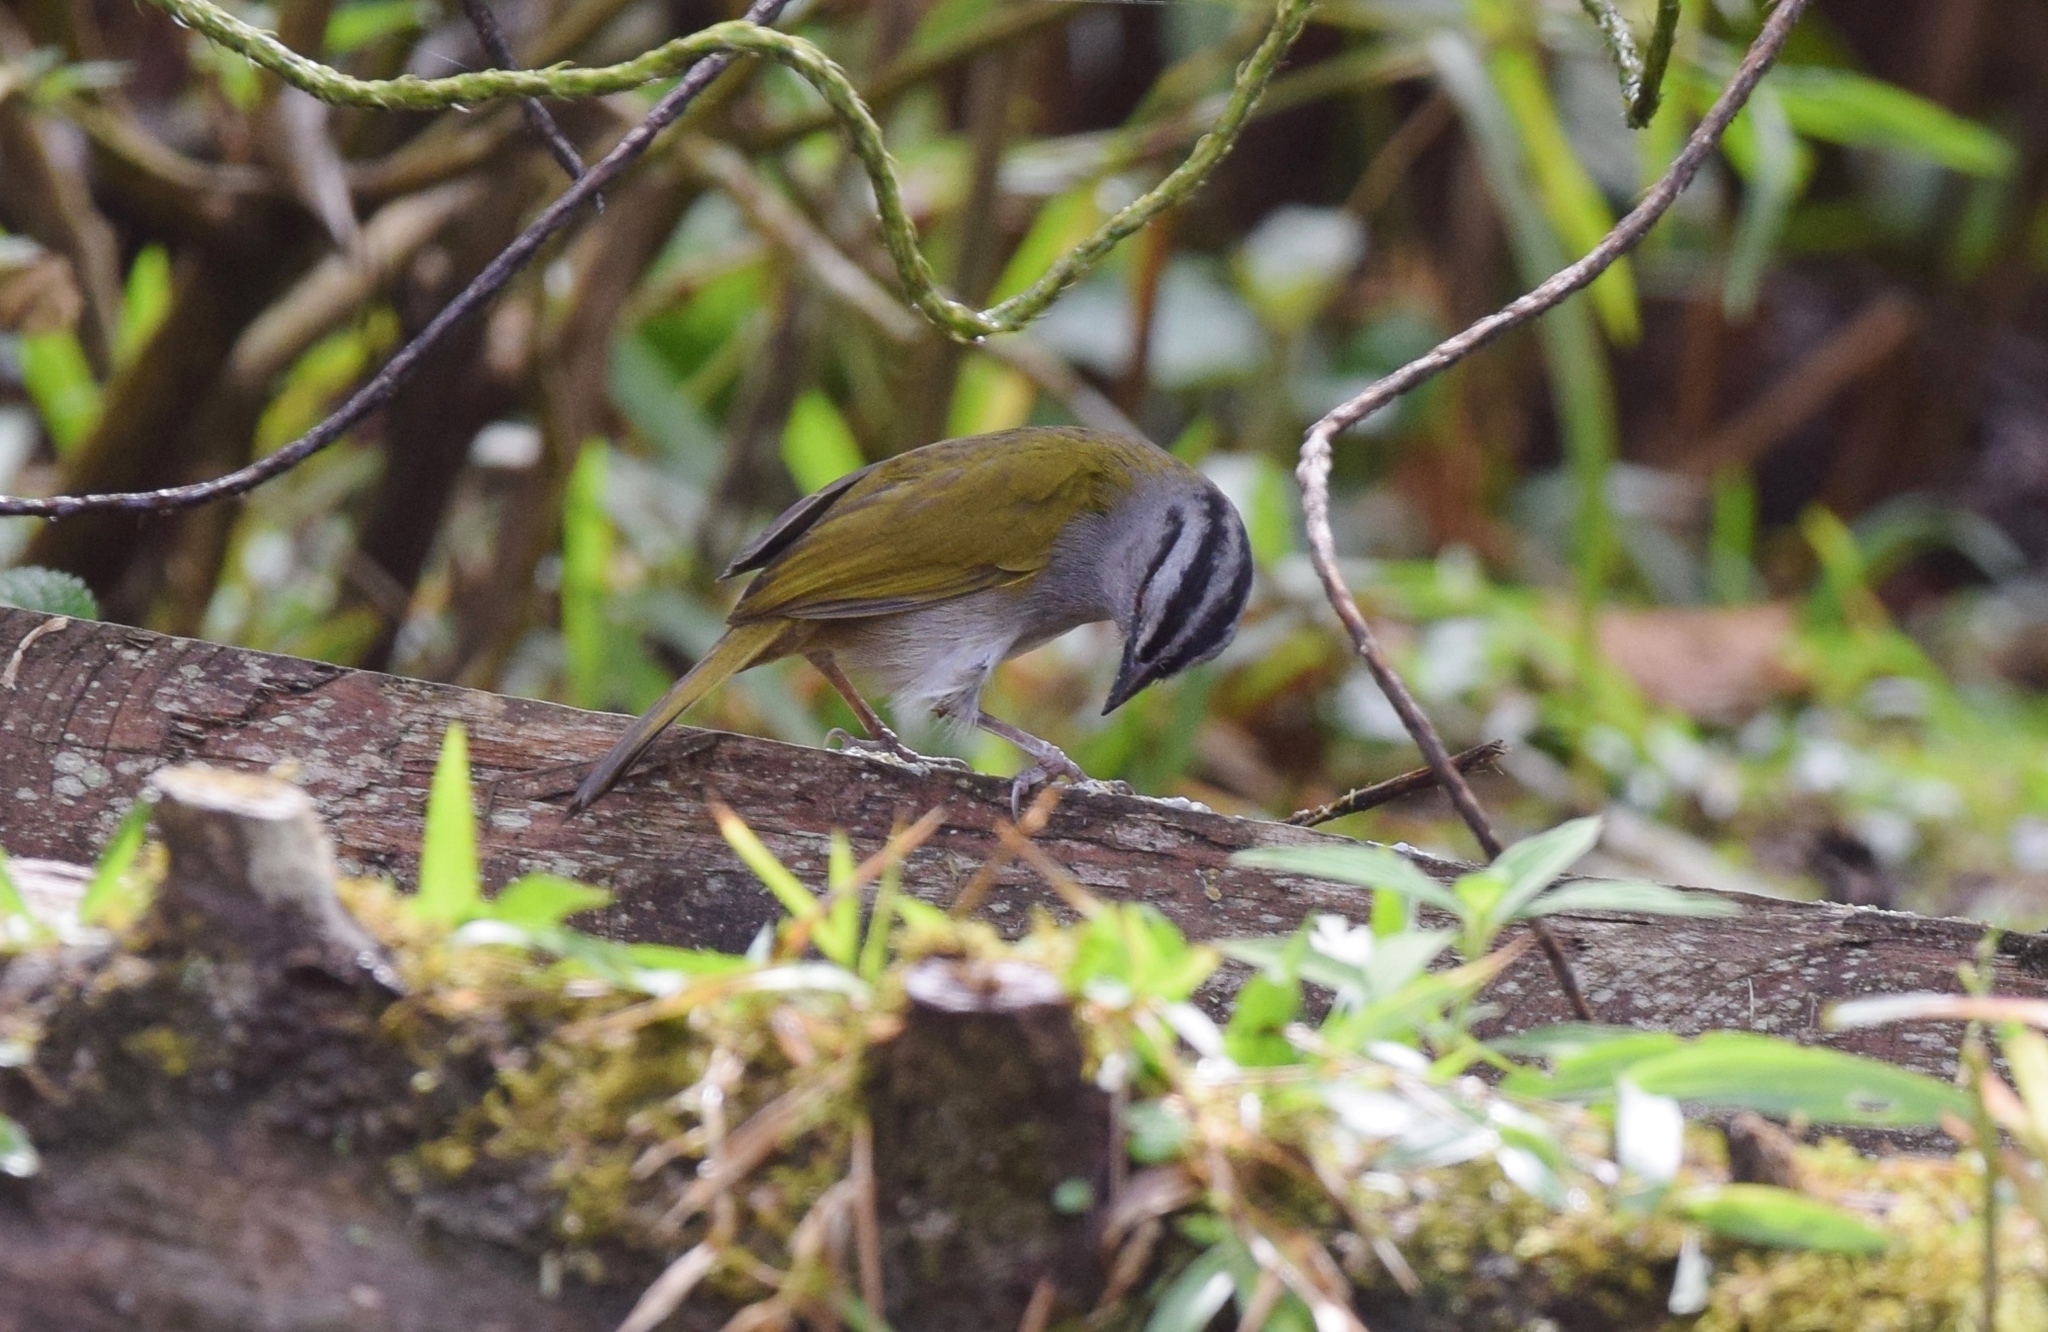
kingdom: Animalia
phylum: Chordata
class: Aves
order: Passeriformes
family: Passerellidae
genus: Arremonops
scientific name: Arremonops conirostris
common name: Black-striped sparrow
